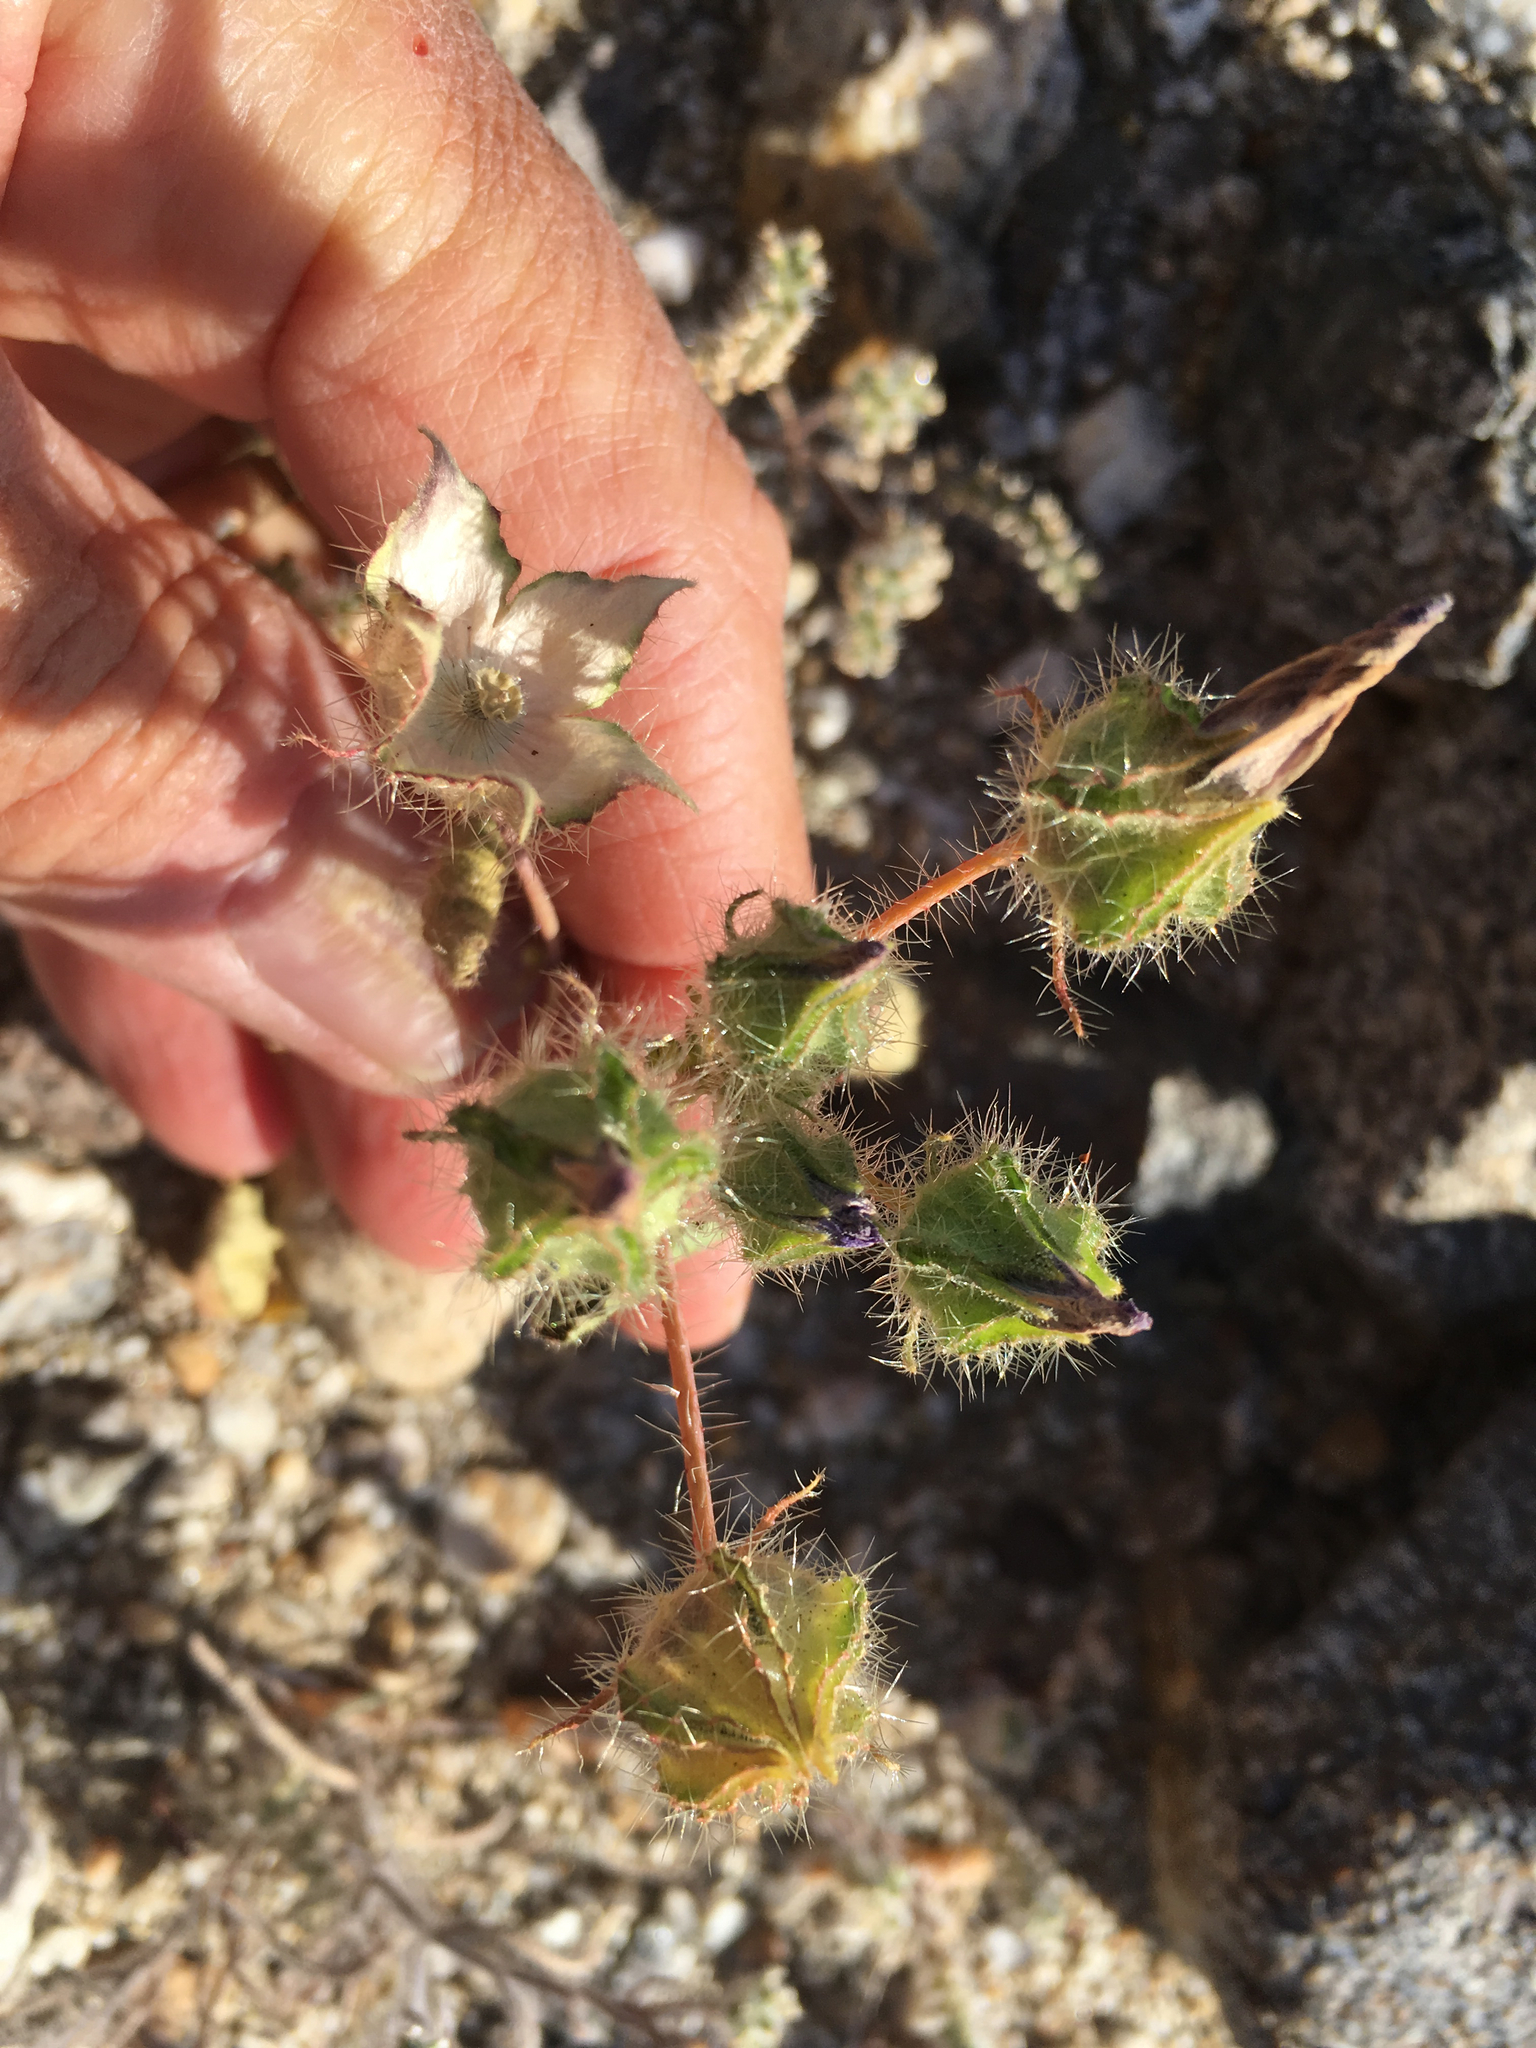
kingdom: Plantae
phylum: Tracheophyta
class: Magnoliopsida
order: Malvales
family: Malvaceae
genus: Eremalche
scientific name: Eremalche rotundifolia
